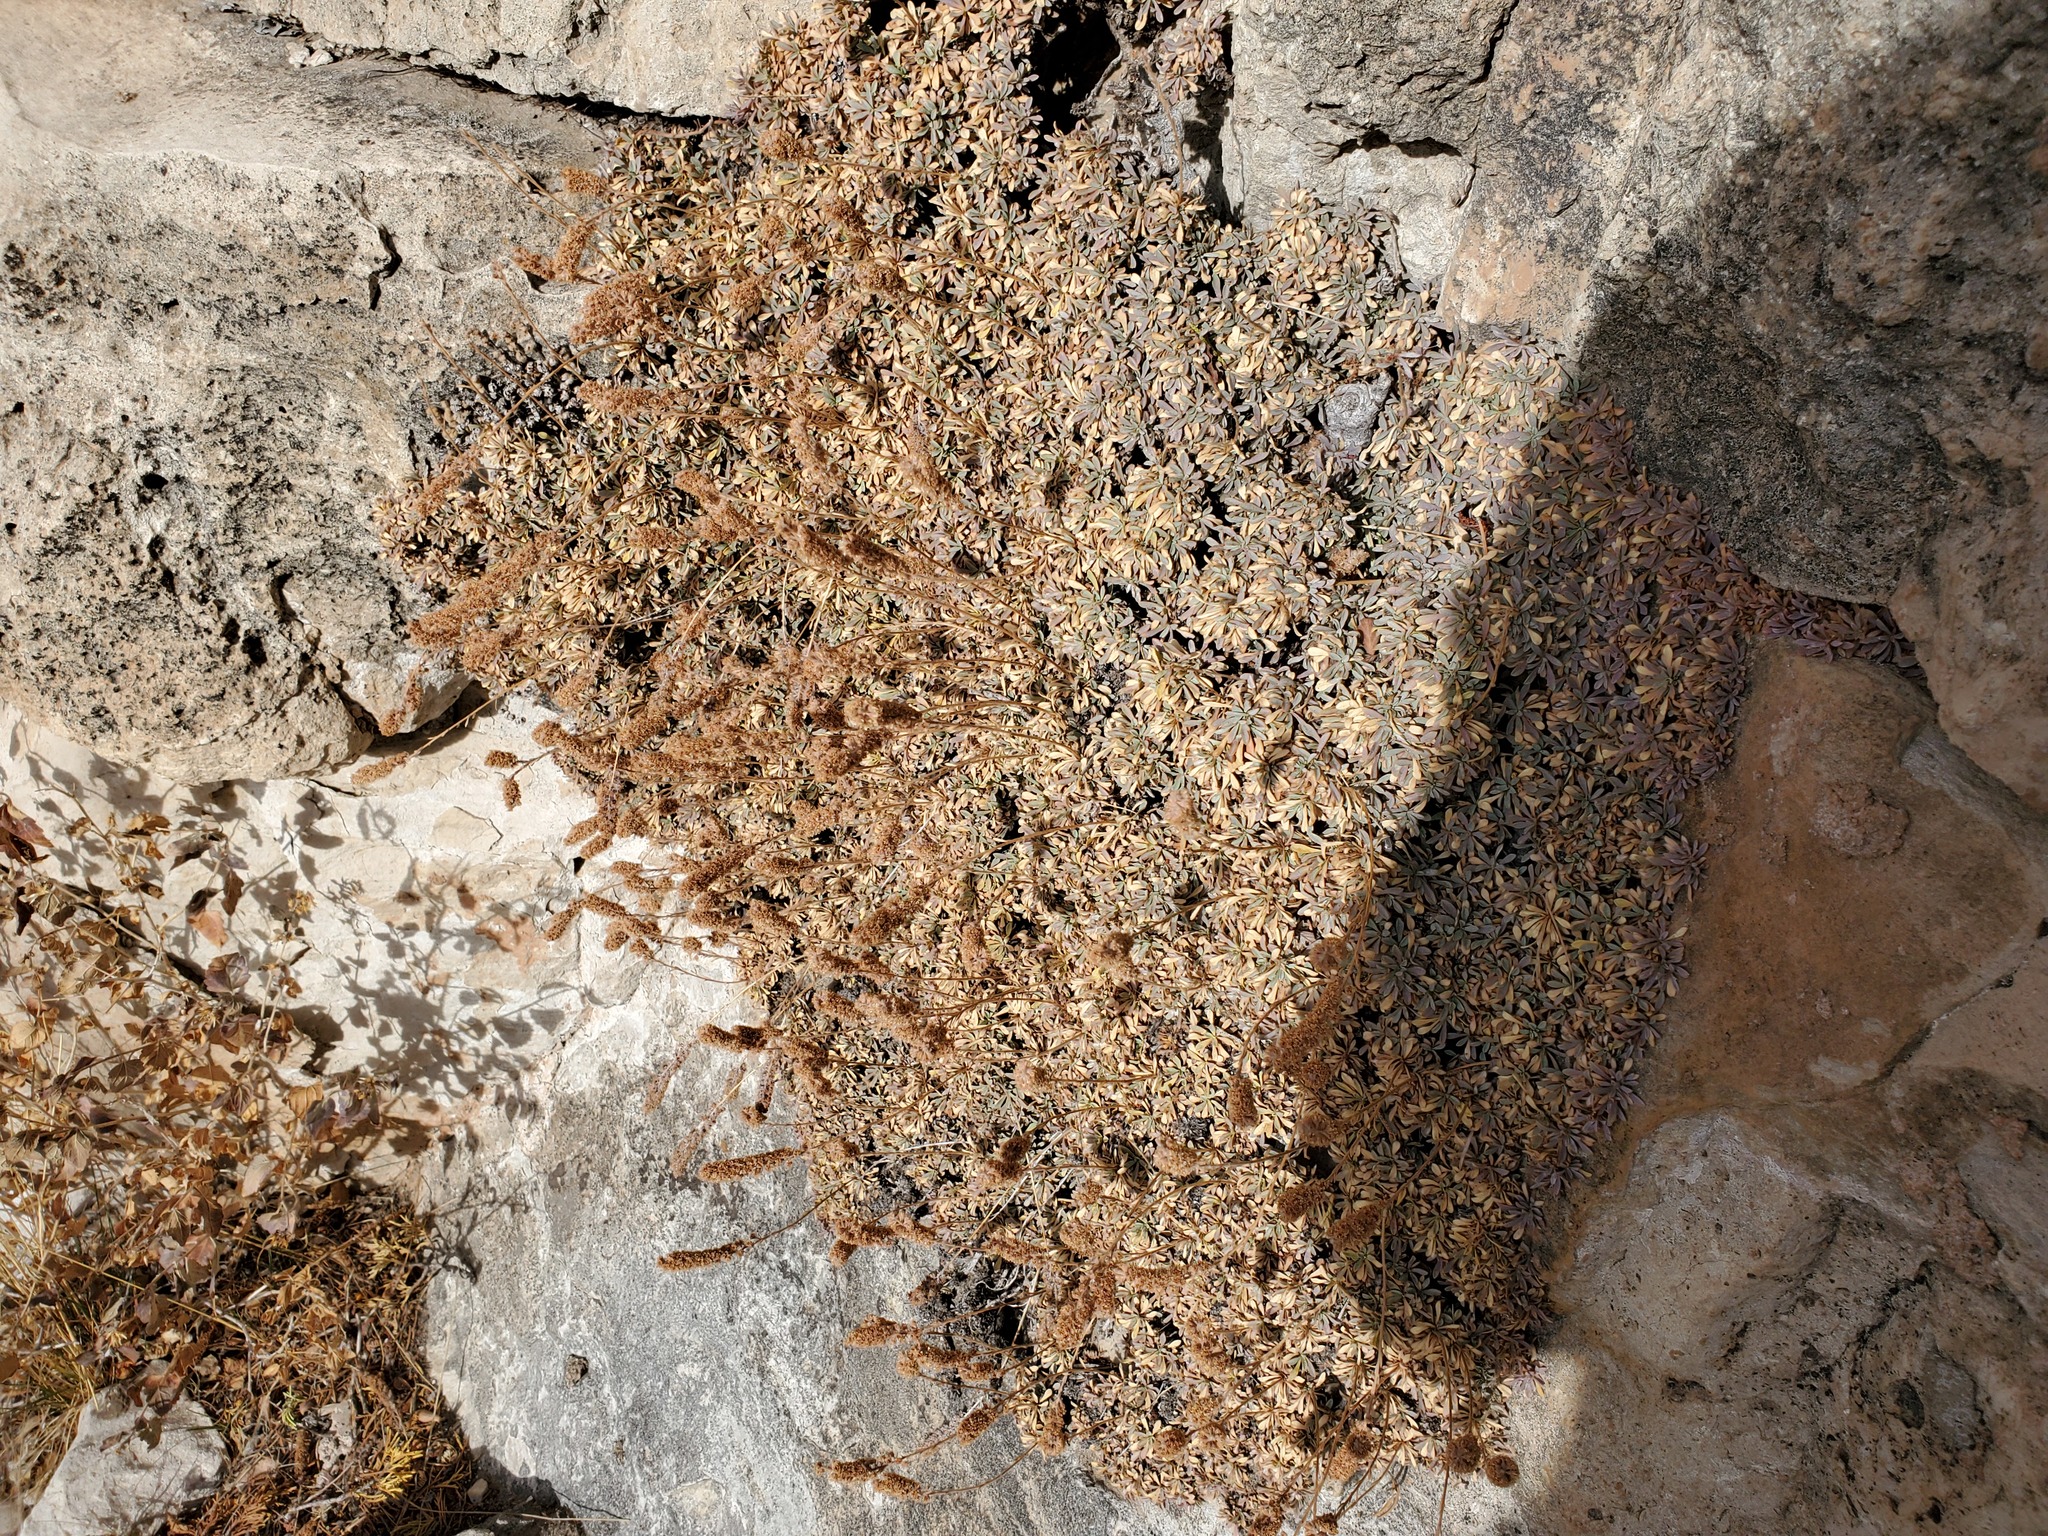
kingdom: Plantae
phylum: Tracheophyta
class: Magnoliopsida
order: Rosales
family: Rosaceae
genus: Petrophytum
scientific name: Petrophytum caespitosum
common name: Mat rockspirea
